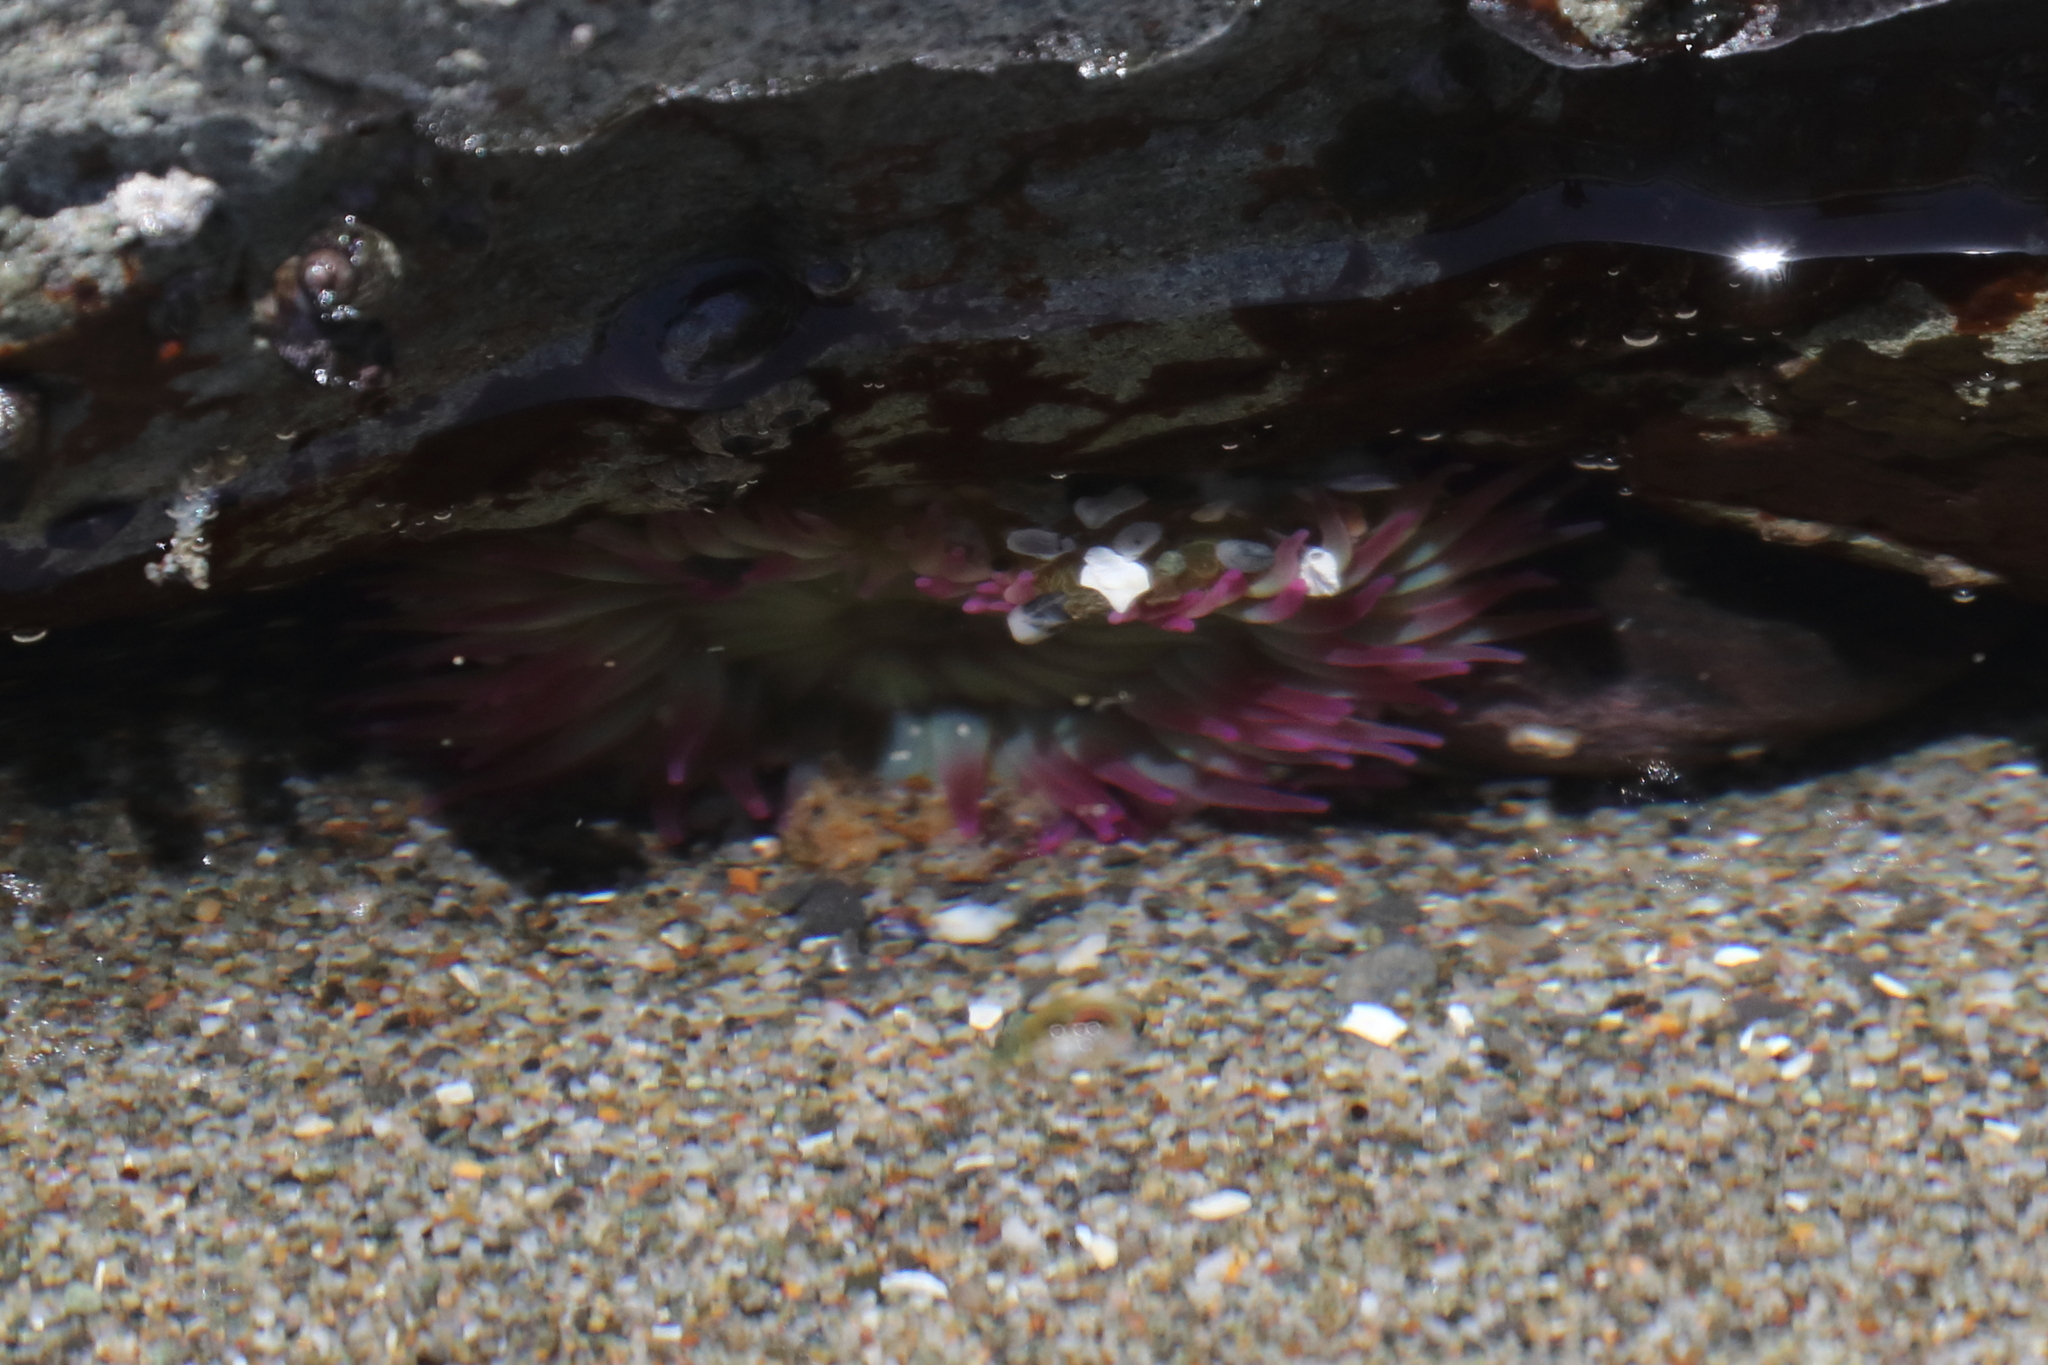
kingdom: Animalia
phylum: Cnidaria
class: Anthozoa
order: Actiniaria
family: Actiniidae
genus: Anthopleura
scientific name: Anthopleura elegantissima
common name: Clonal anemone
